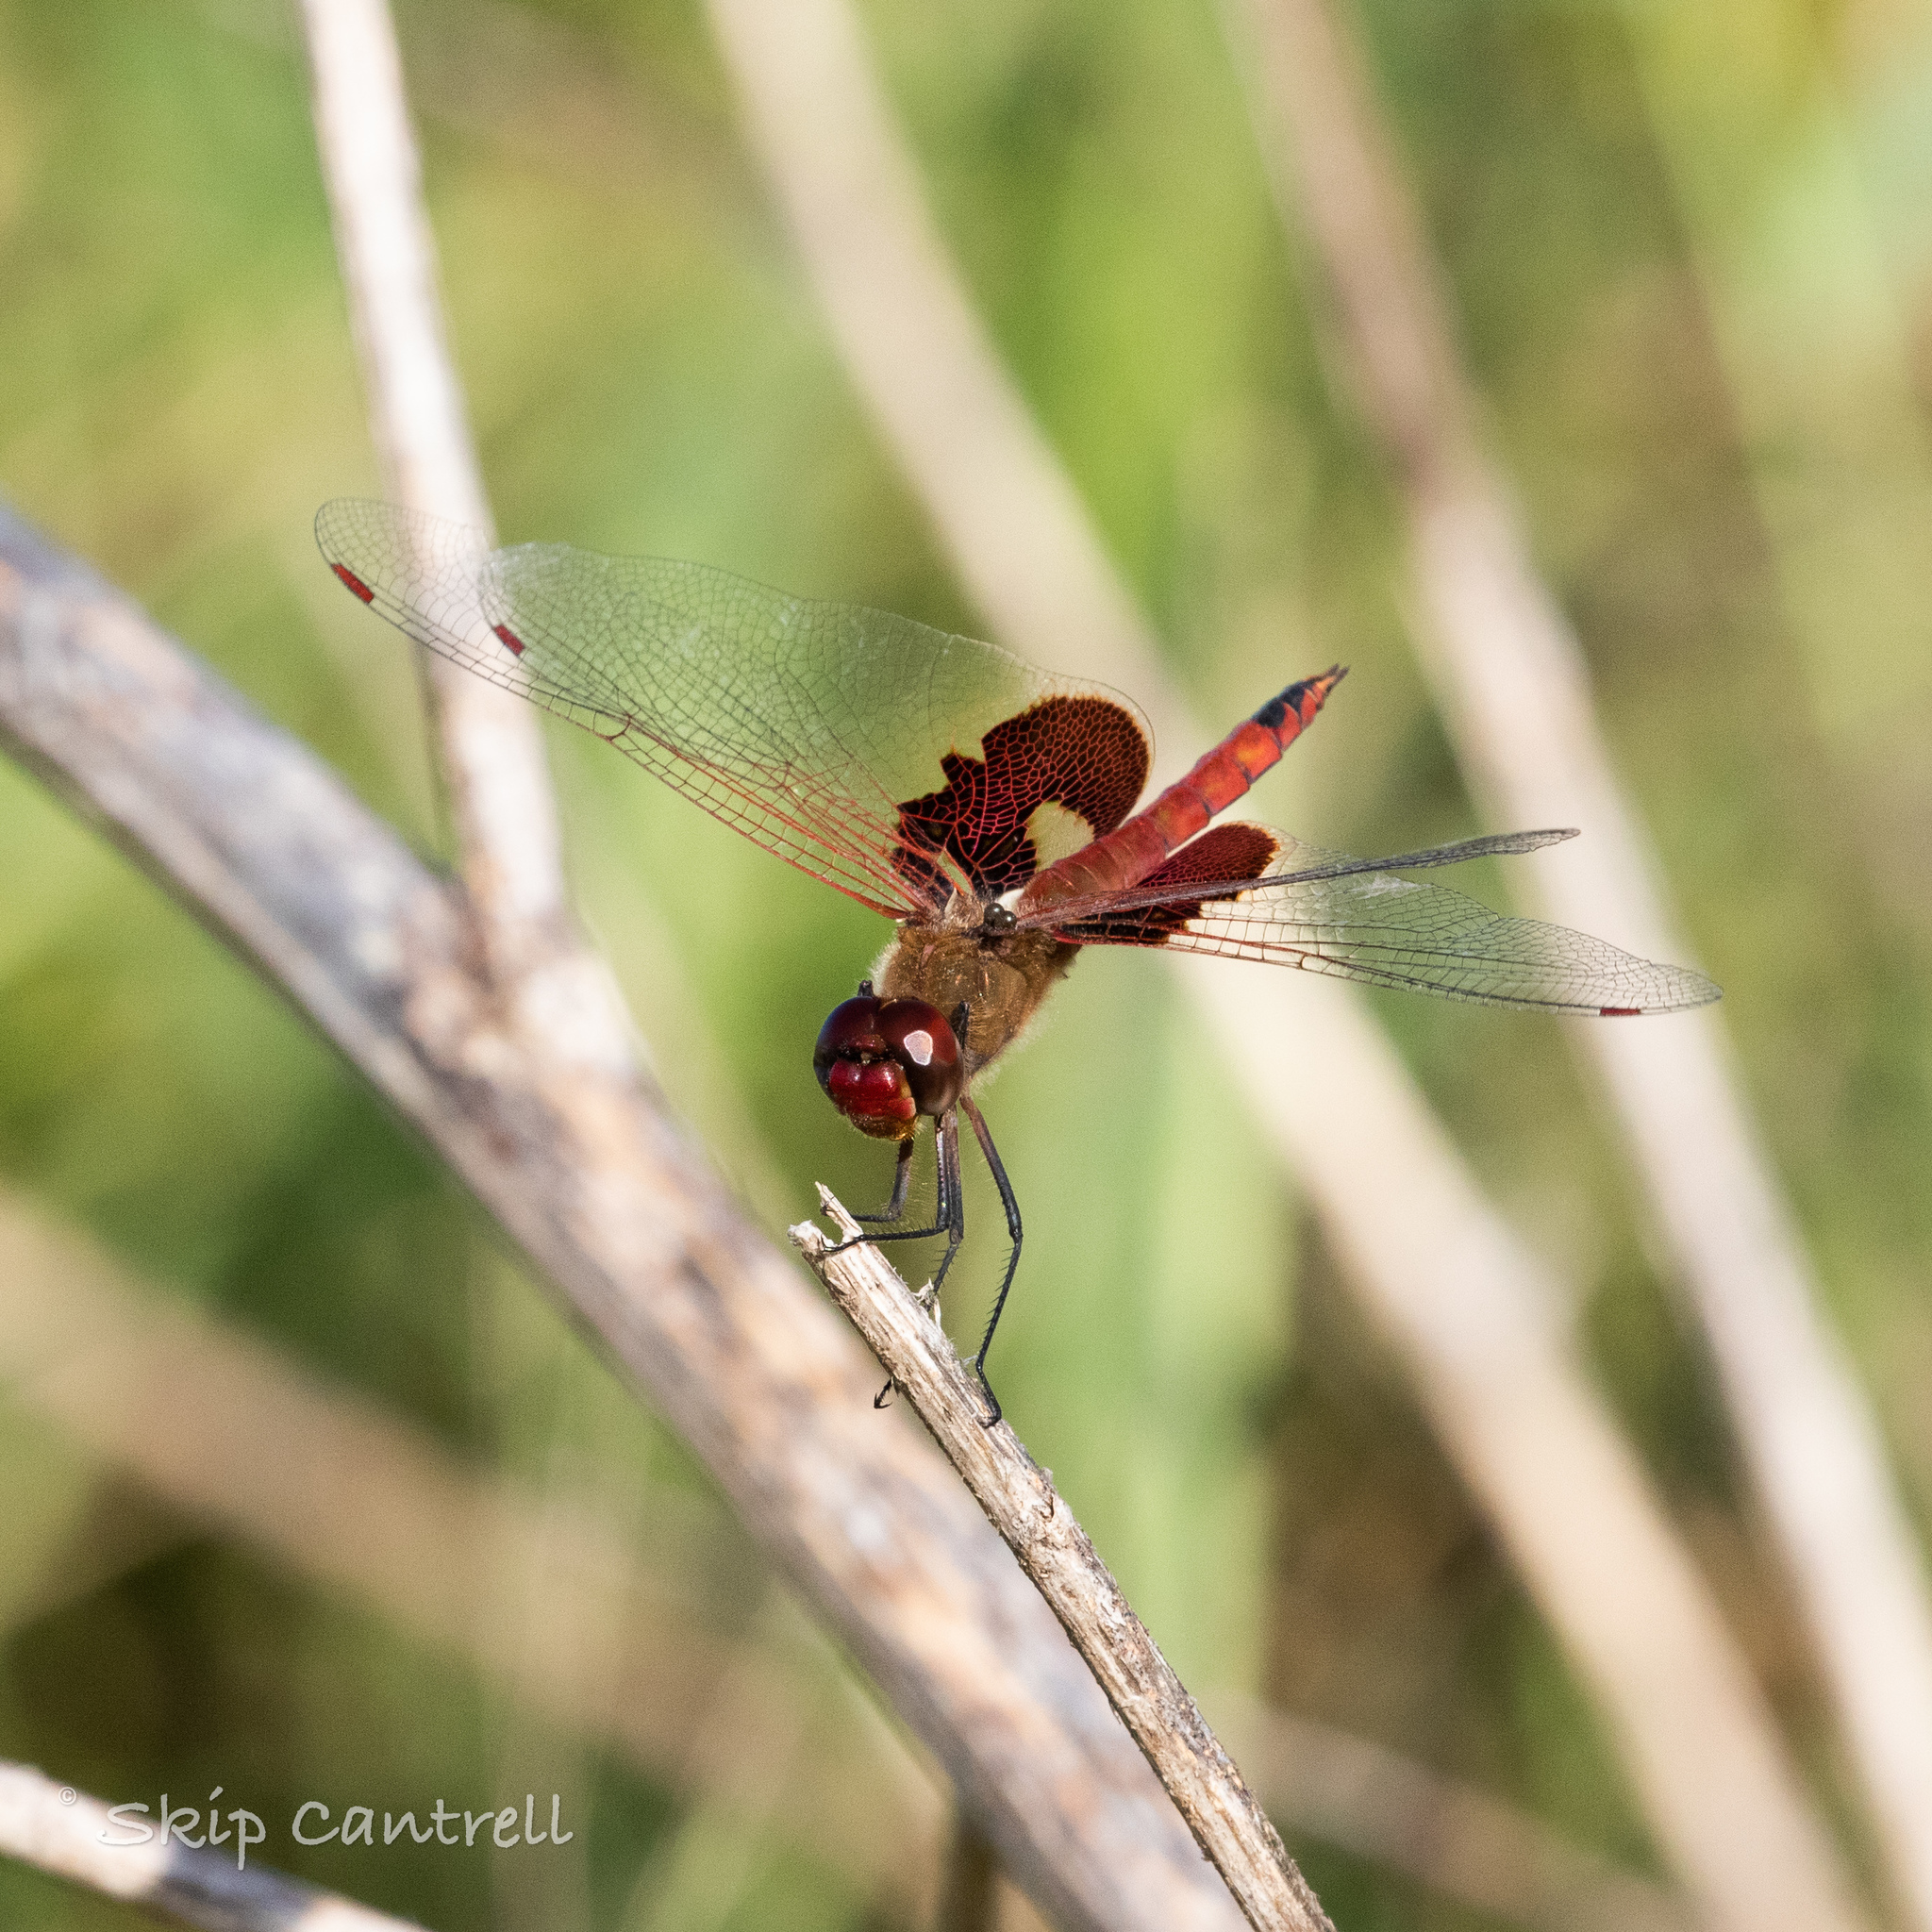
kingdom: Animalia
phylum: Arthropoda
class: Insecta
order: Odonata
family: Libellulidae
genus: Tramea
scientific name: Tramea onusta
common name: Red saddlebags
